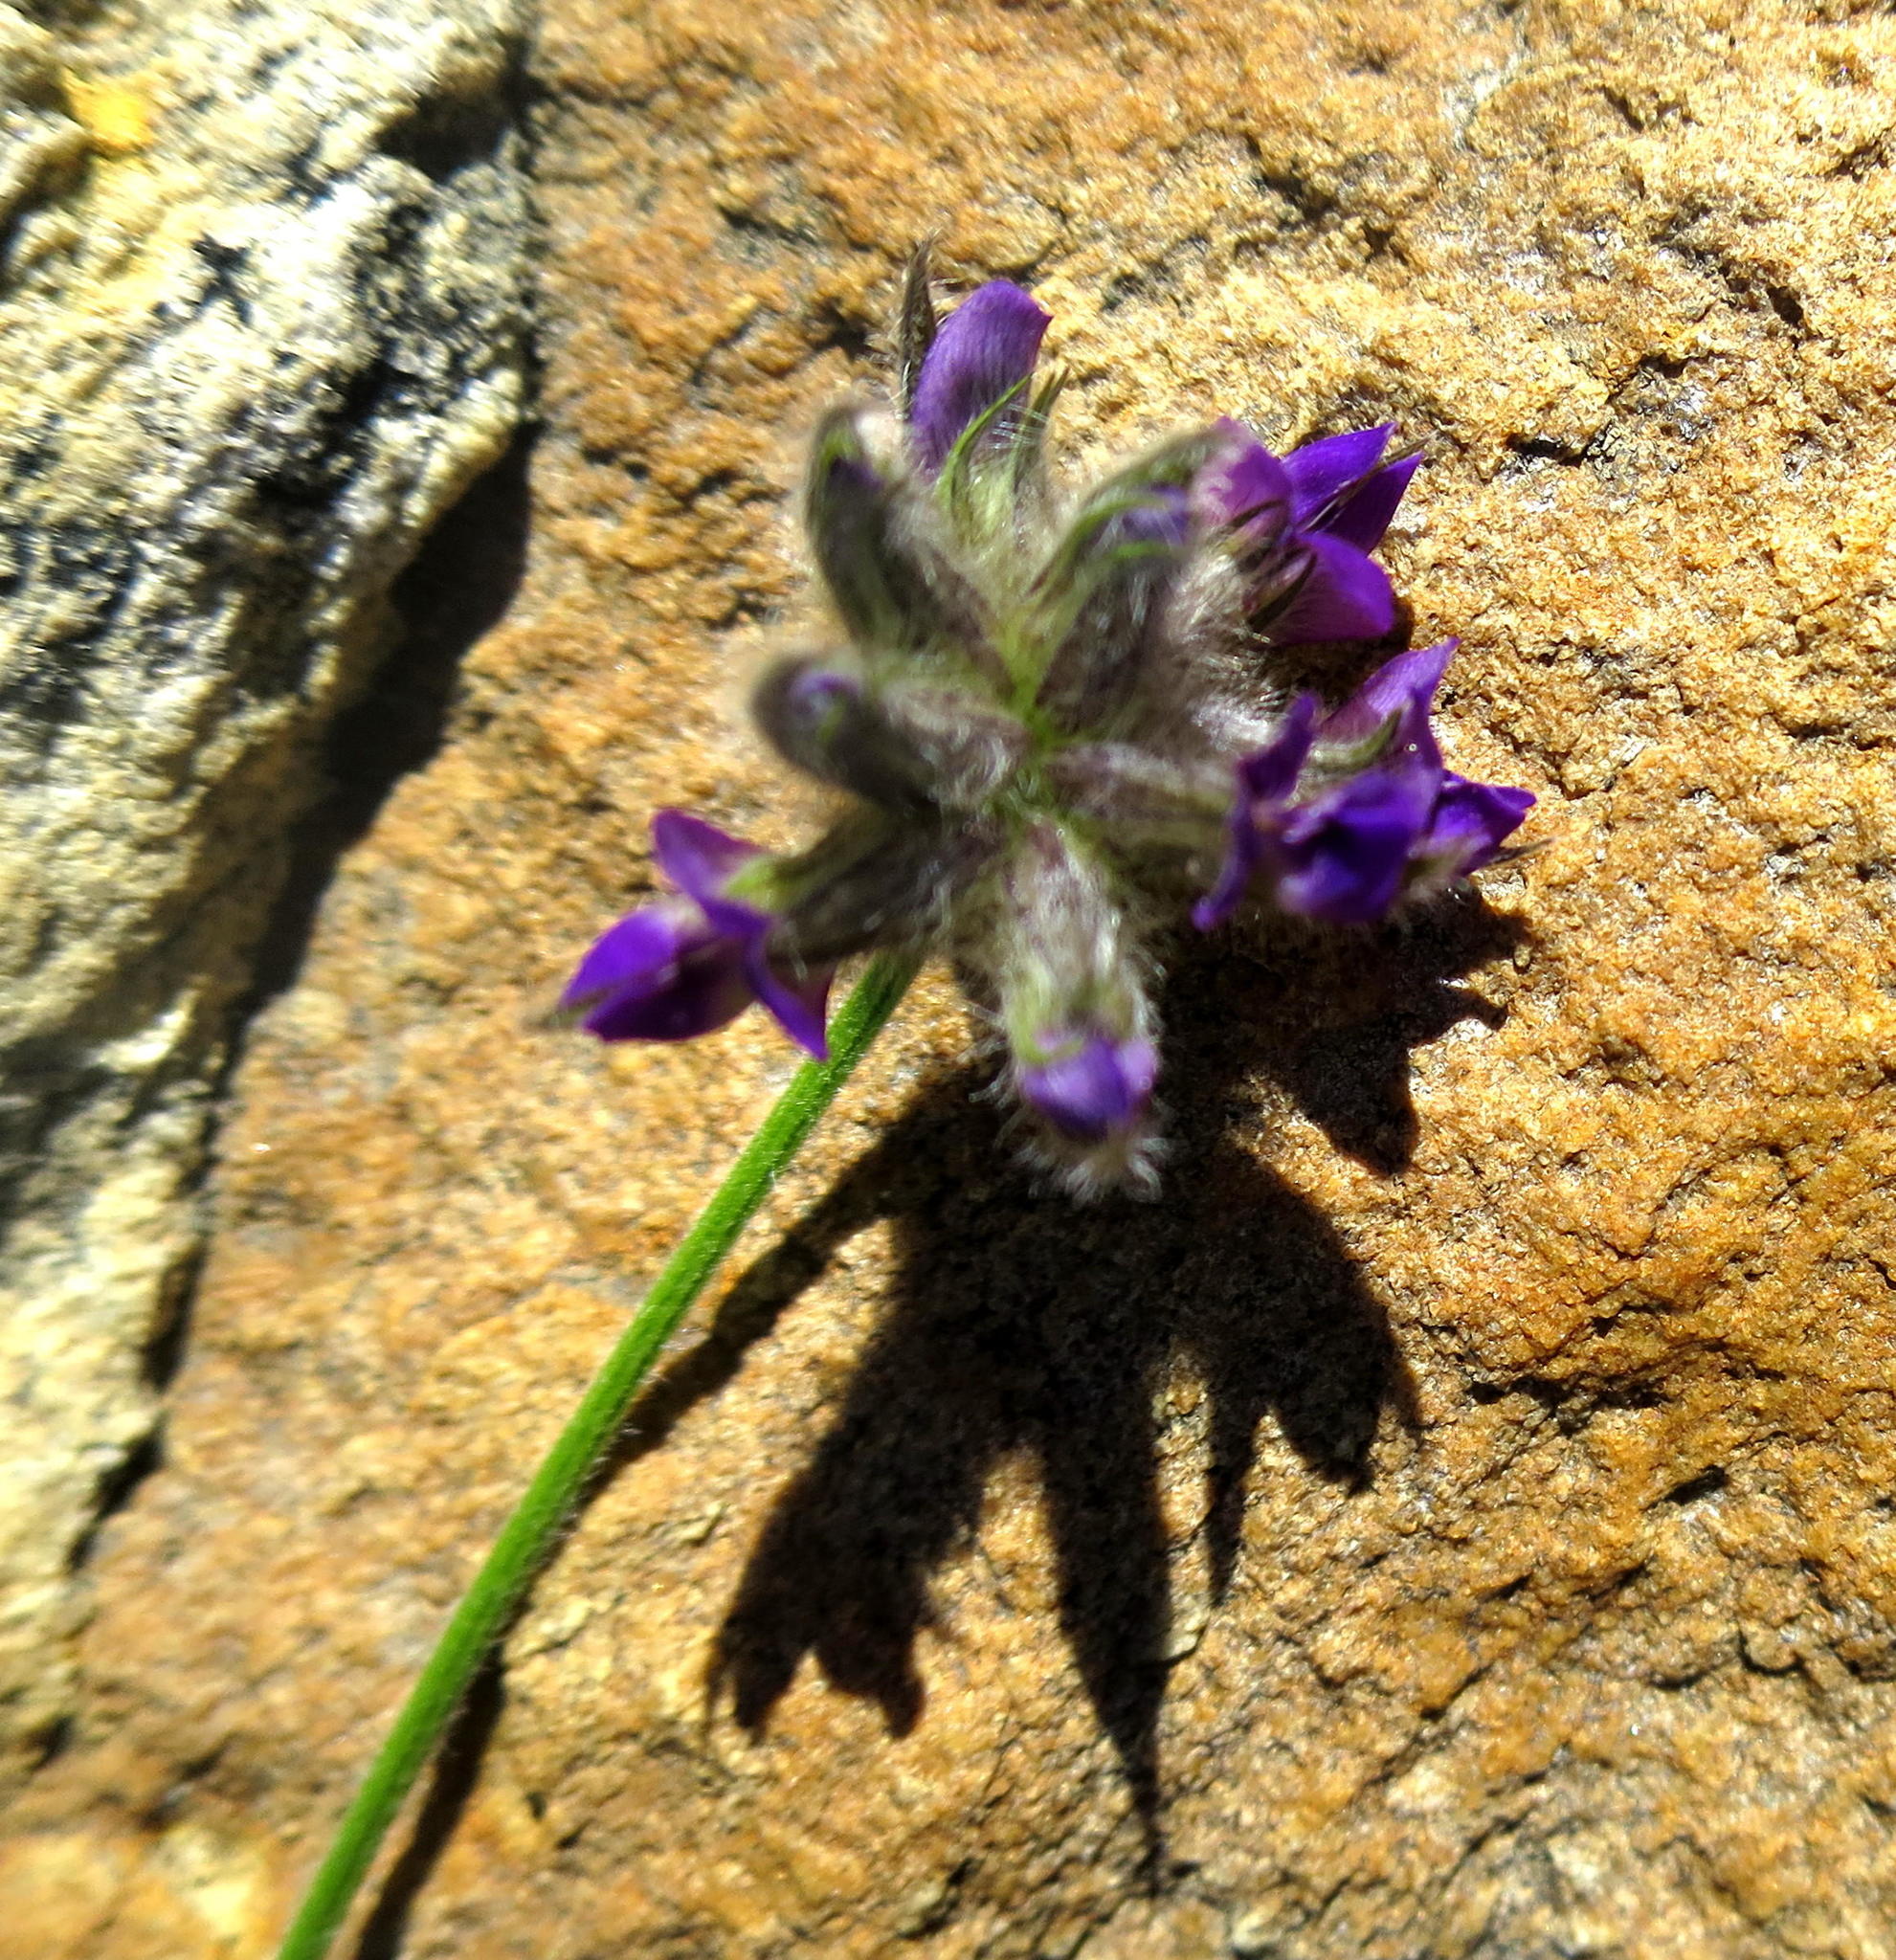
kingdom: Plantae
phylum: Tracheophyta
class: Magnoliopsida
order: Fabales
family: Fabaceae
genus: Psoralea
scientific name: Psoralea swartbergensis
